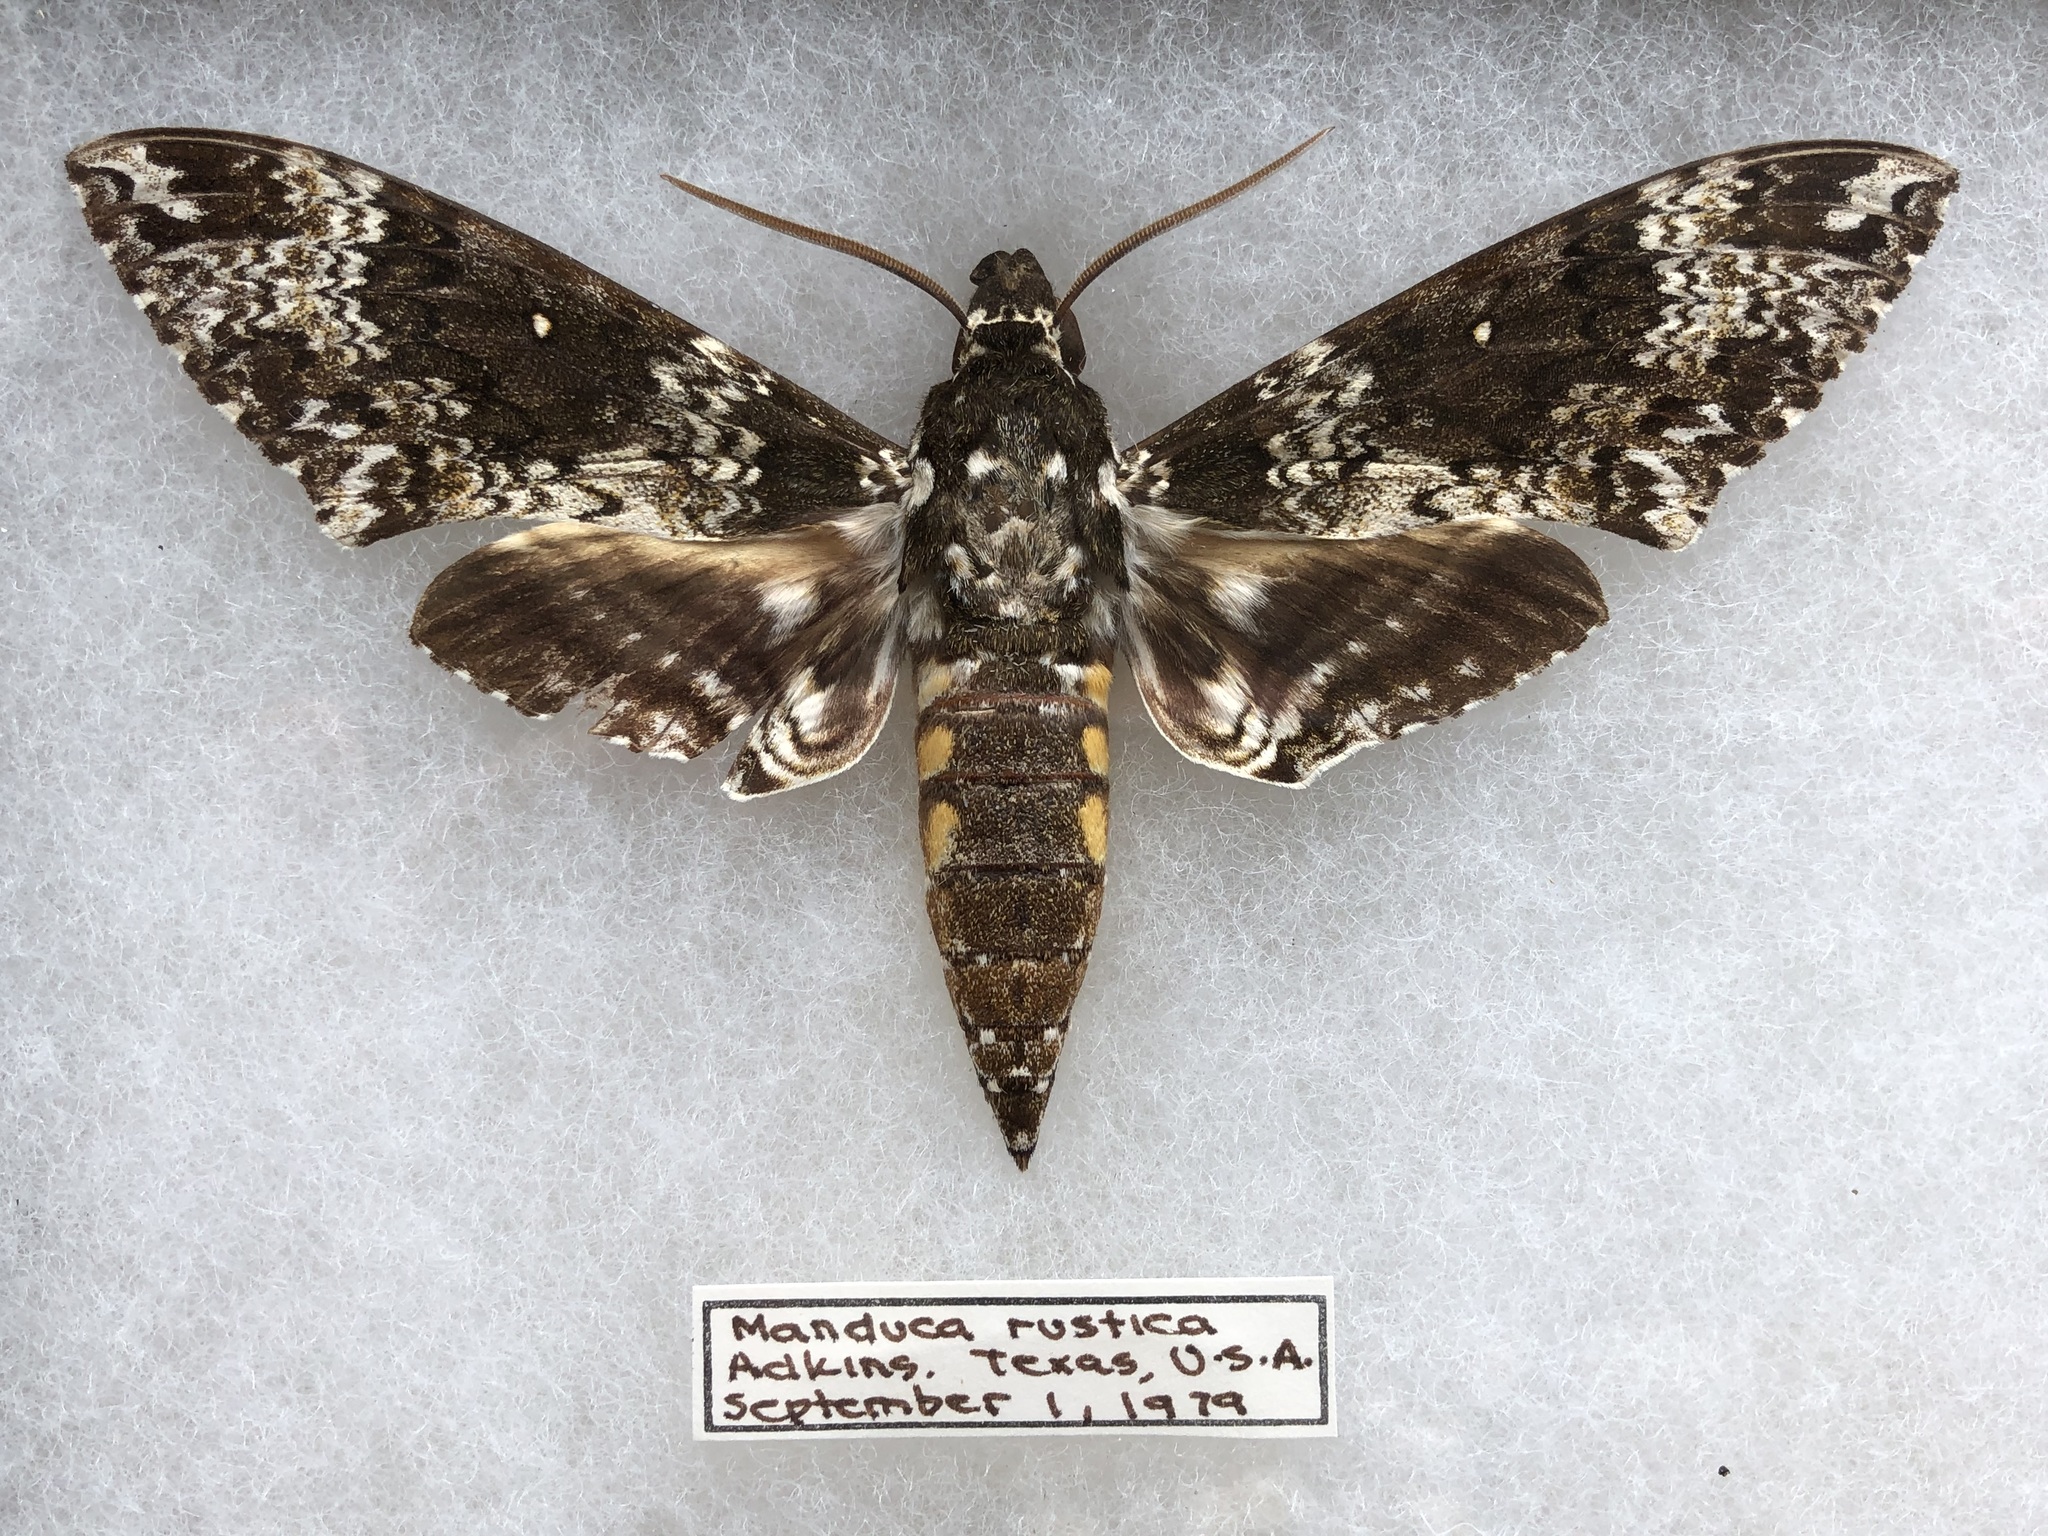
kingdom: Animalia
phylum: Arthropoda
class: Insecta
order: Lepidoptera
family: Sphingidae
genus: Manduca
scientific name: Manduca rustica
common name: Rustic sphinx
